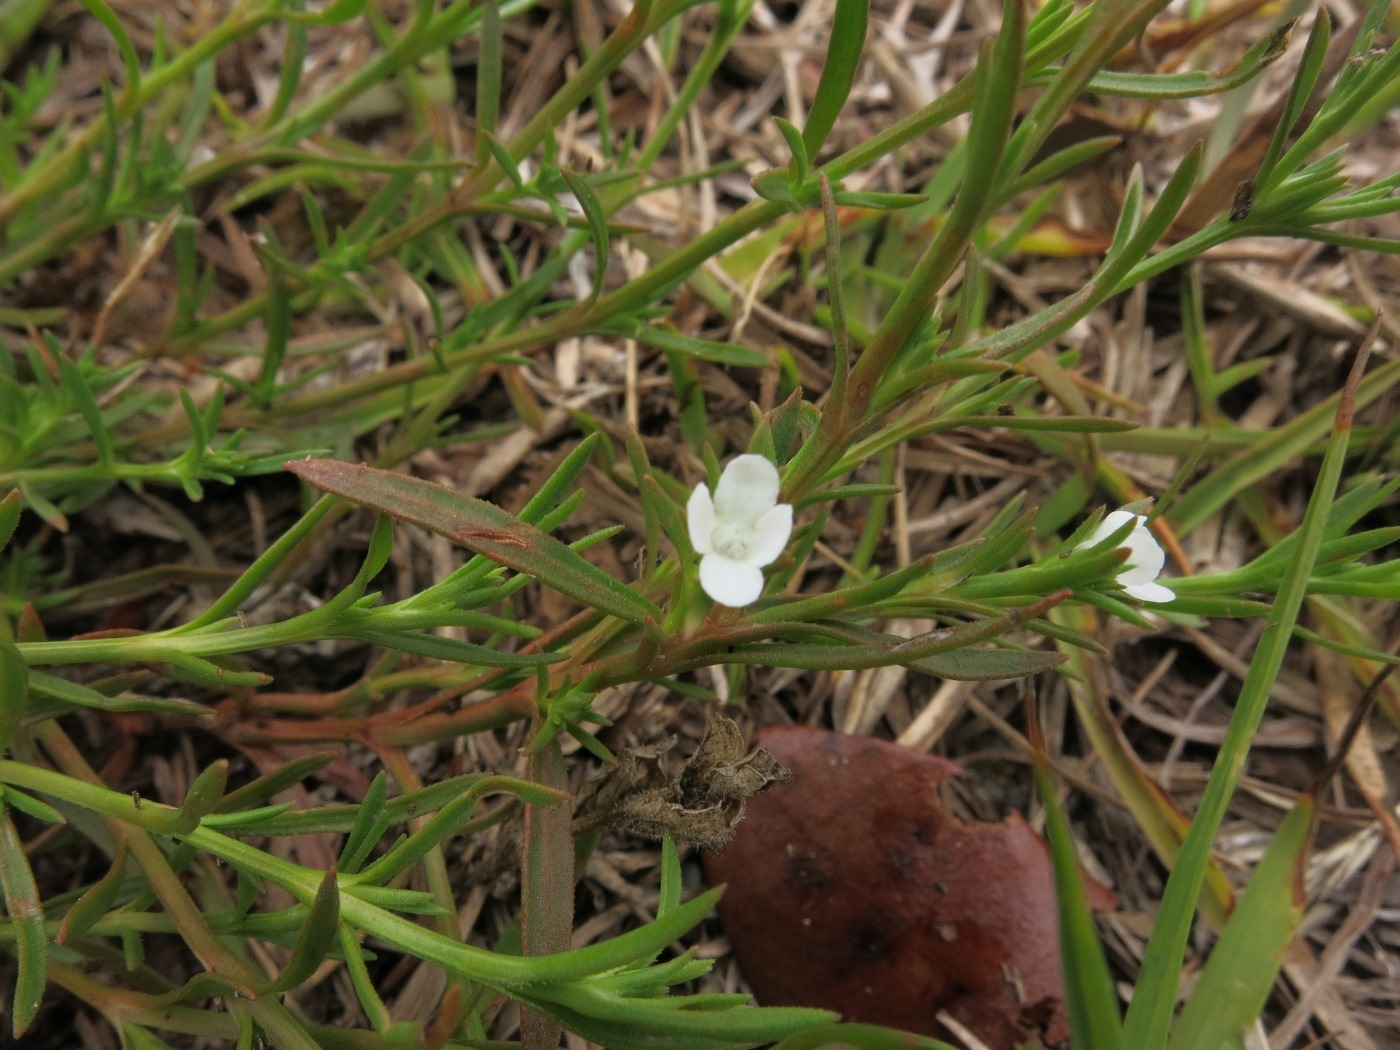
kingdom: Plantae
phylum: Tracheophyta
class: Magnoliopsida
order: Lamiales
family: Tetrachondraceae
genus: Polypremum
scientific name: Polypremum procumbens
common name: Juniper-leaf
